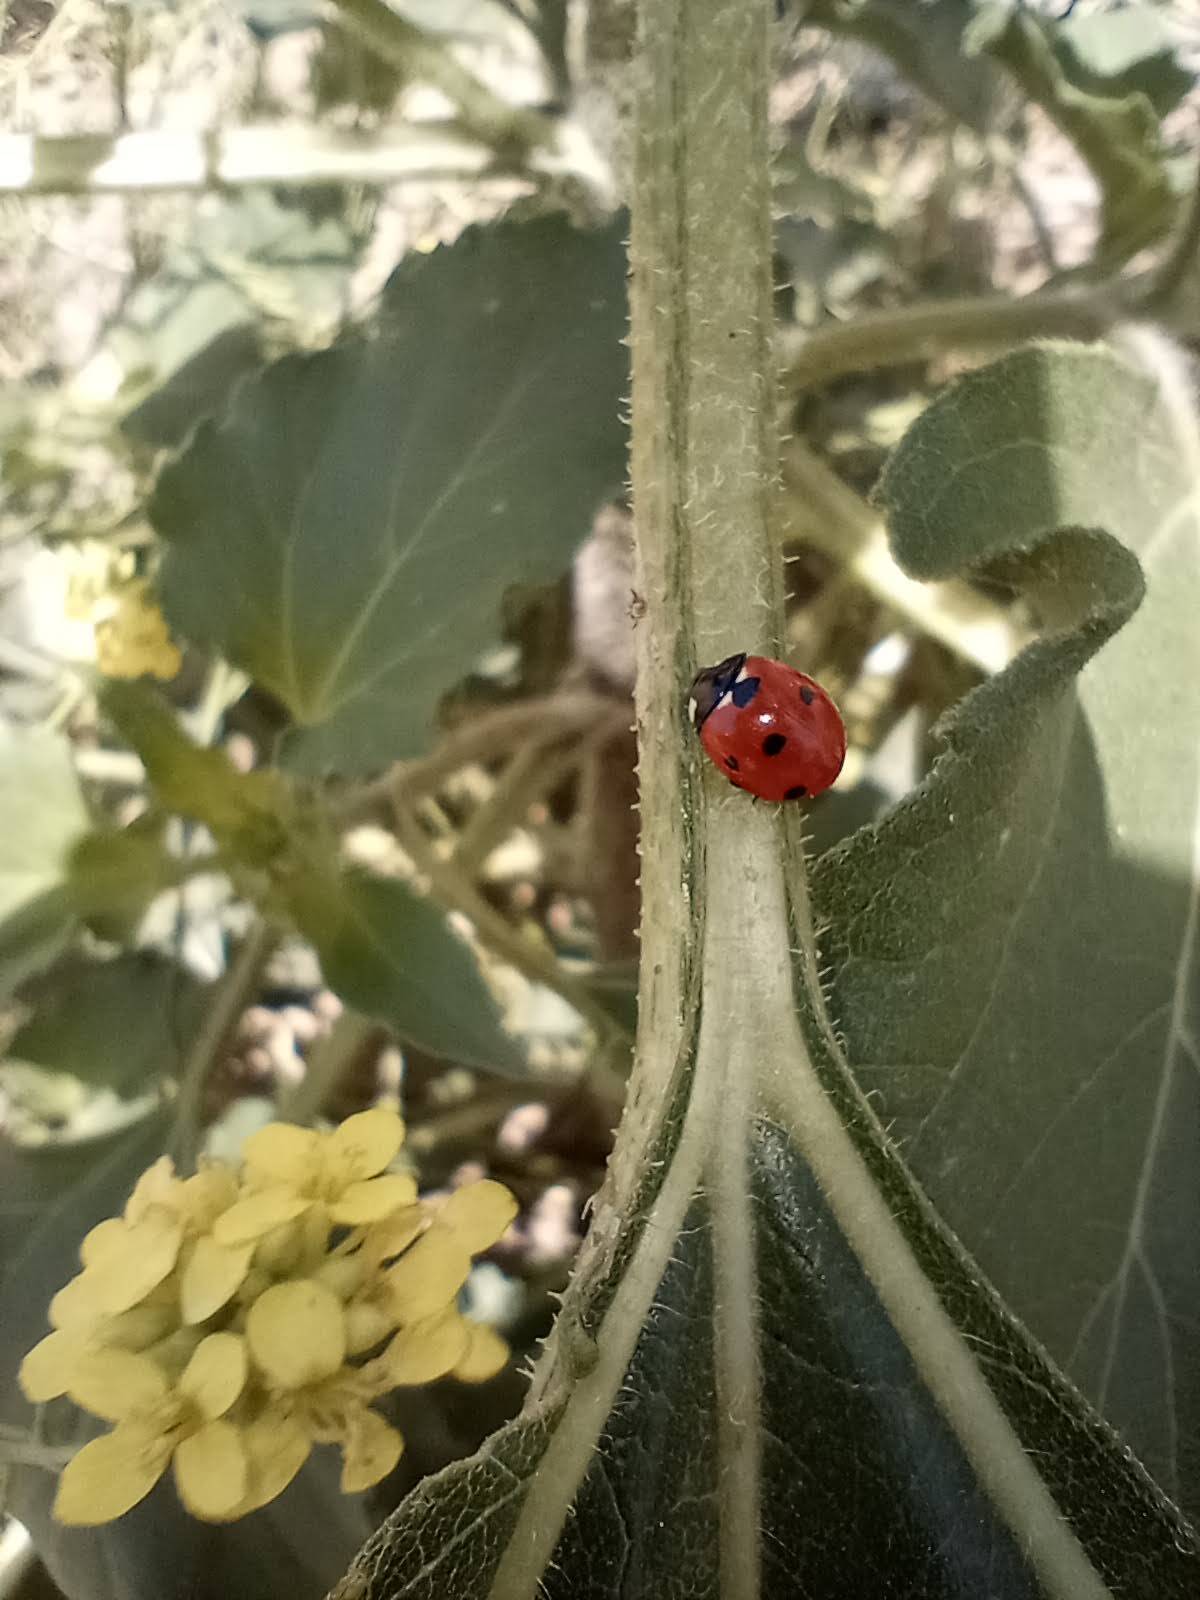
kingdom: Animalia
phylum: Arthropoda
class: Insecta
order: Coleoptera
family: Coccinellidae
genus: Coccinella
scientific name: Coccinella septempunctata
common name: Sevenspotted lady beetle
